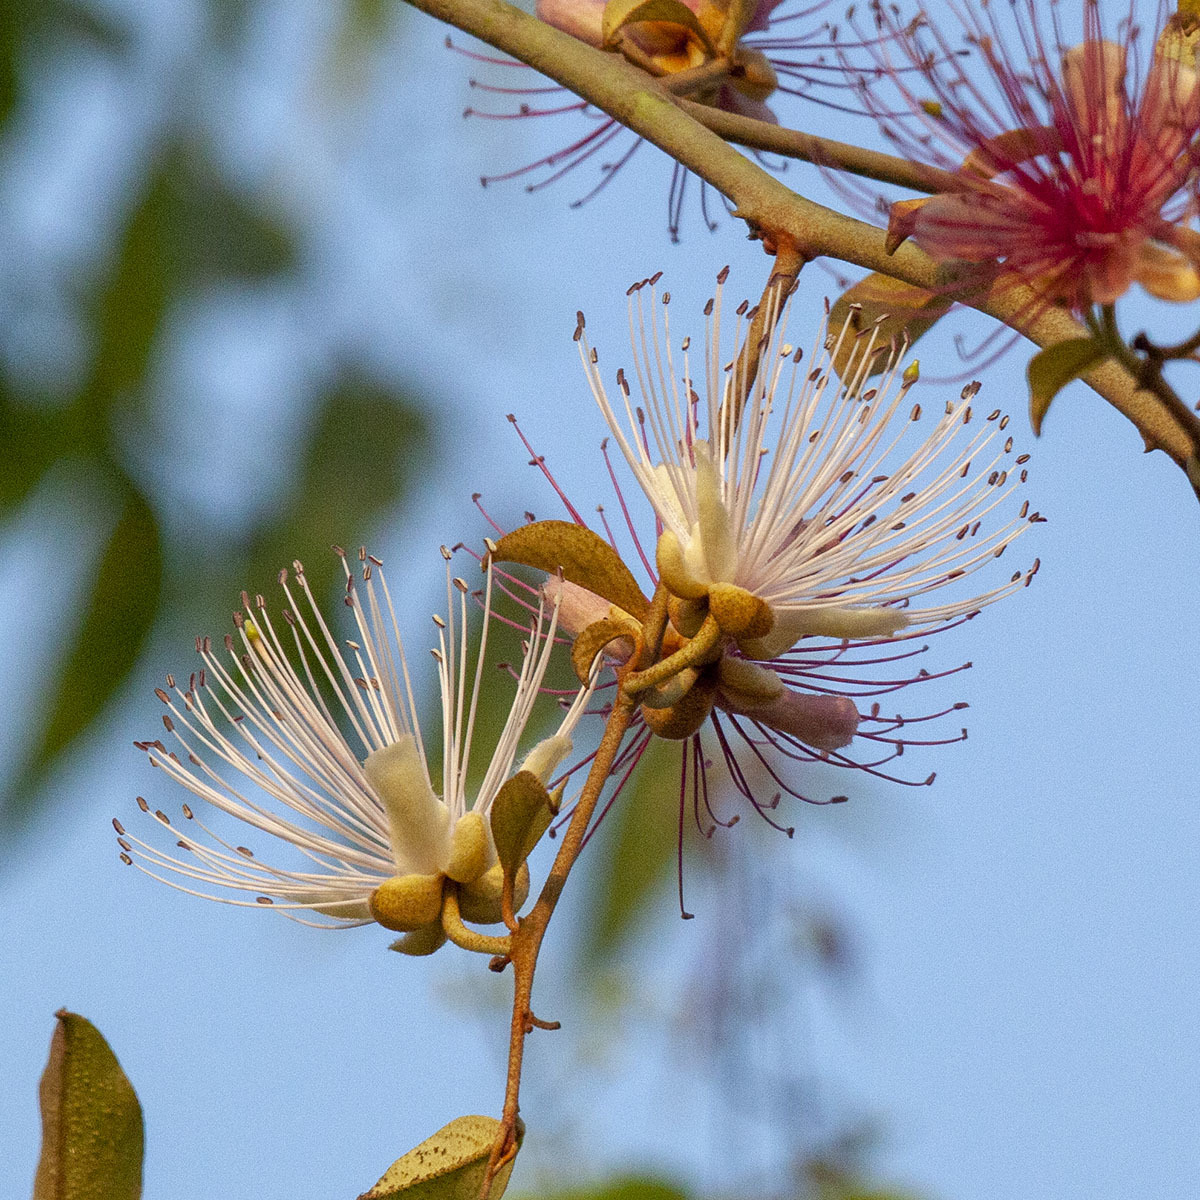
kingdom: Plantae
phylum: Tracheophyta
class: Magnoliopsida
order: Brassicales
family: Capparaceae
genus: Capparis
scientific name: Capparis zeylanica
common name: Ceylon caper
